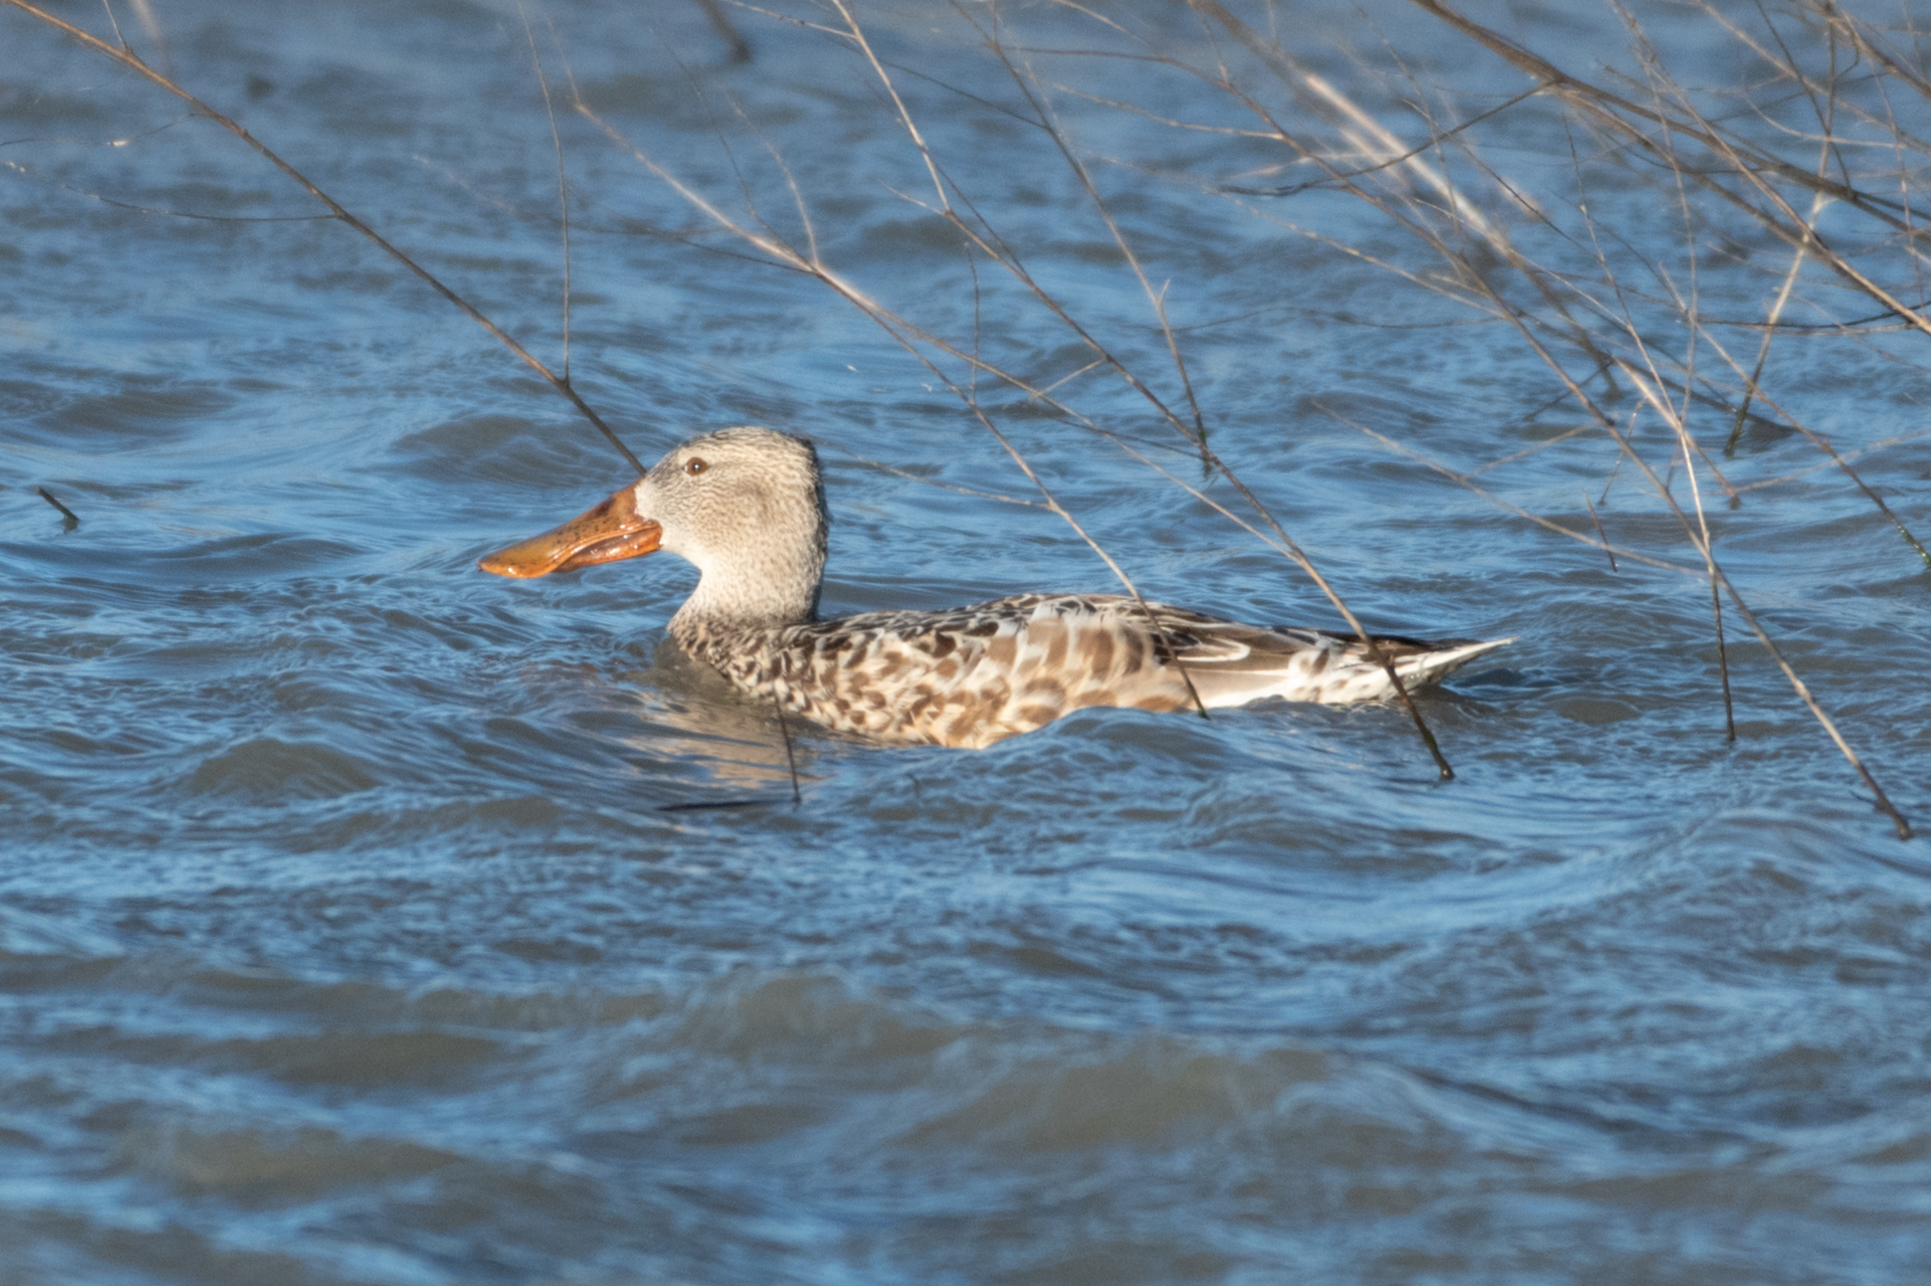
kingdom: Animalia
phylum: Chordata
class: Aves
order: Anseriformes
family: Anatidae
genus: Spatula
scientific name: Spatula clypeata
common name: Northern shoveler
